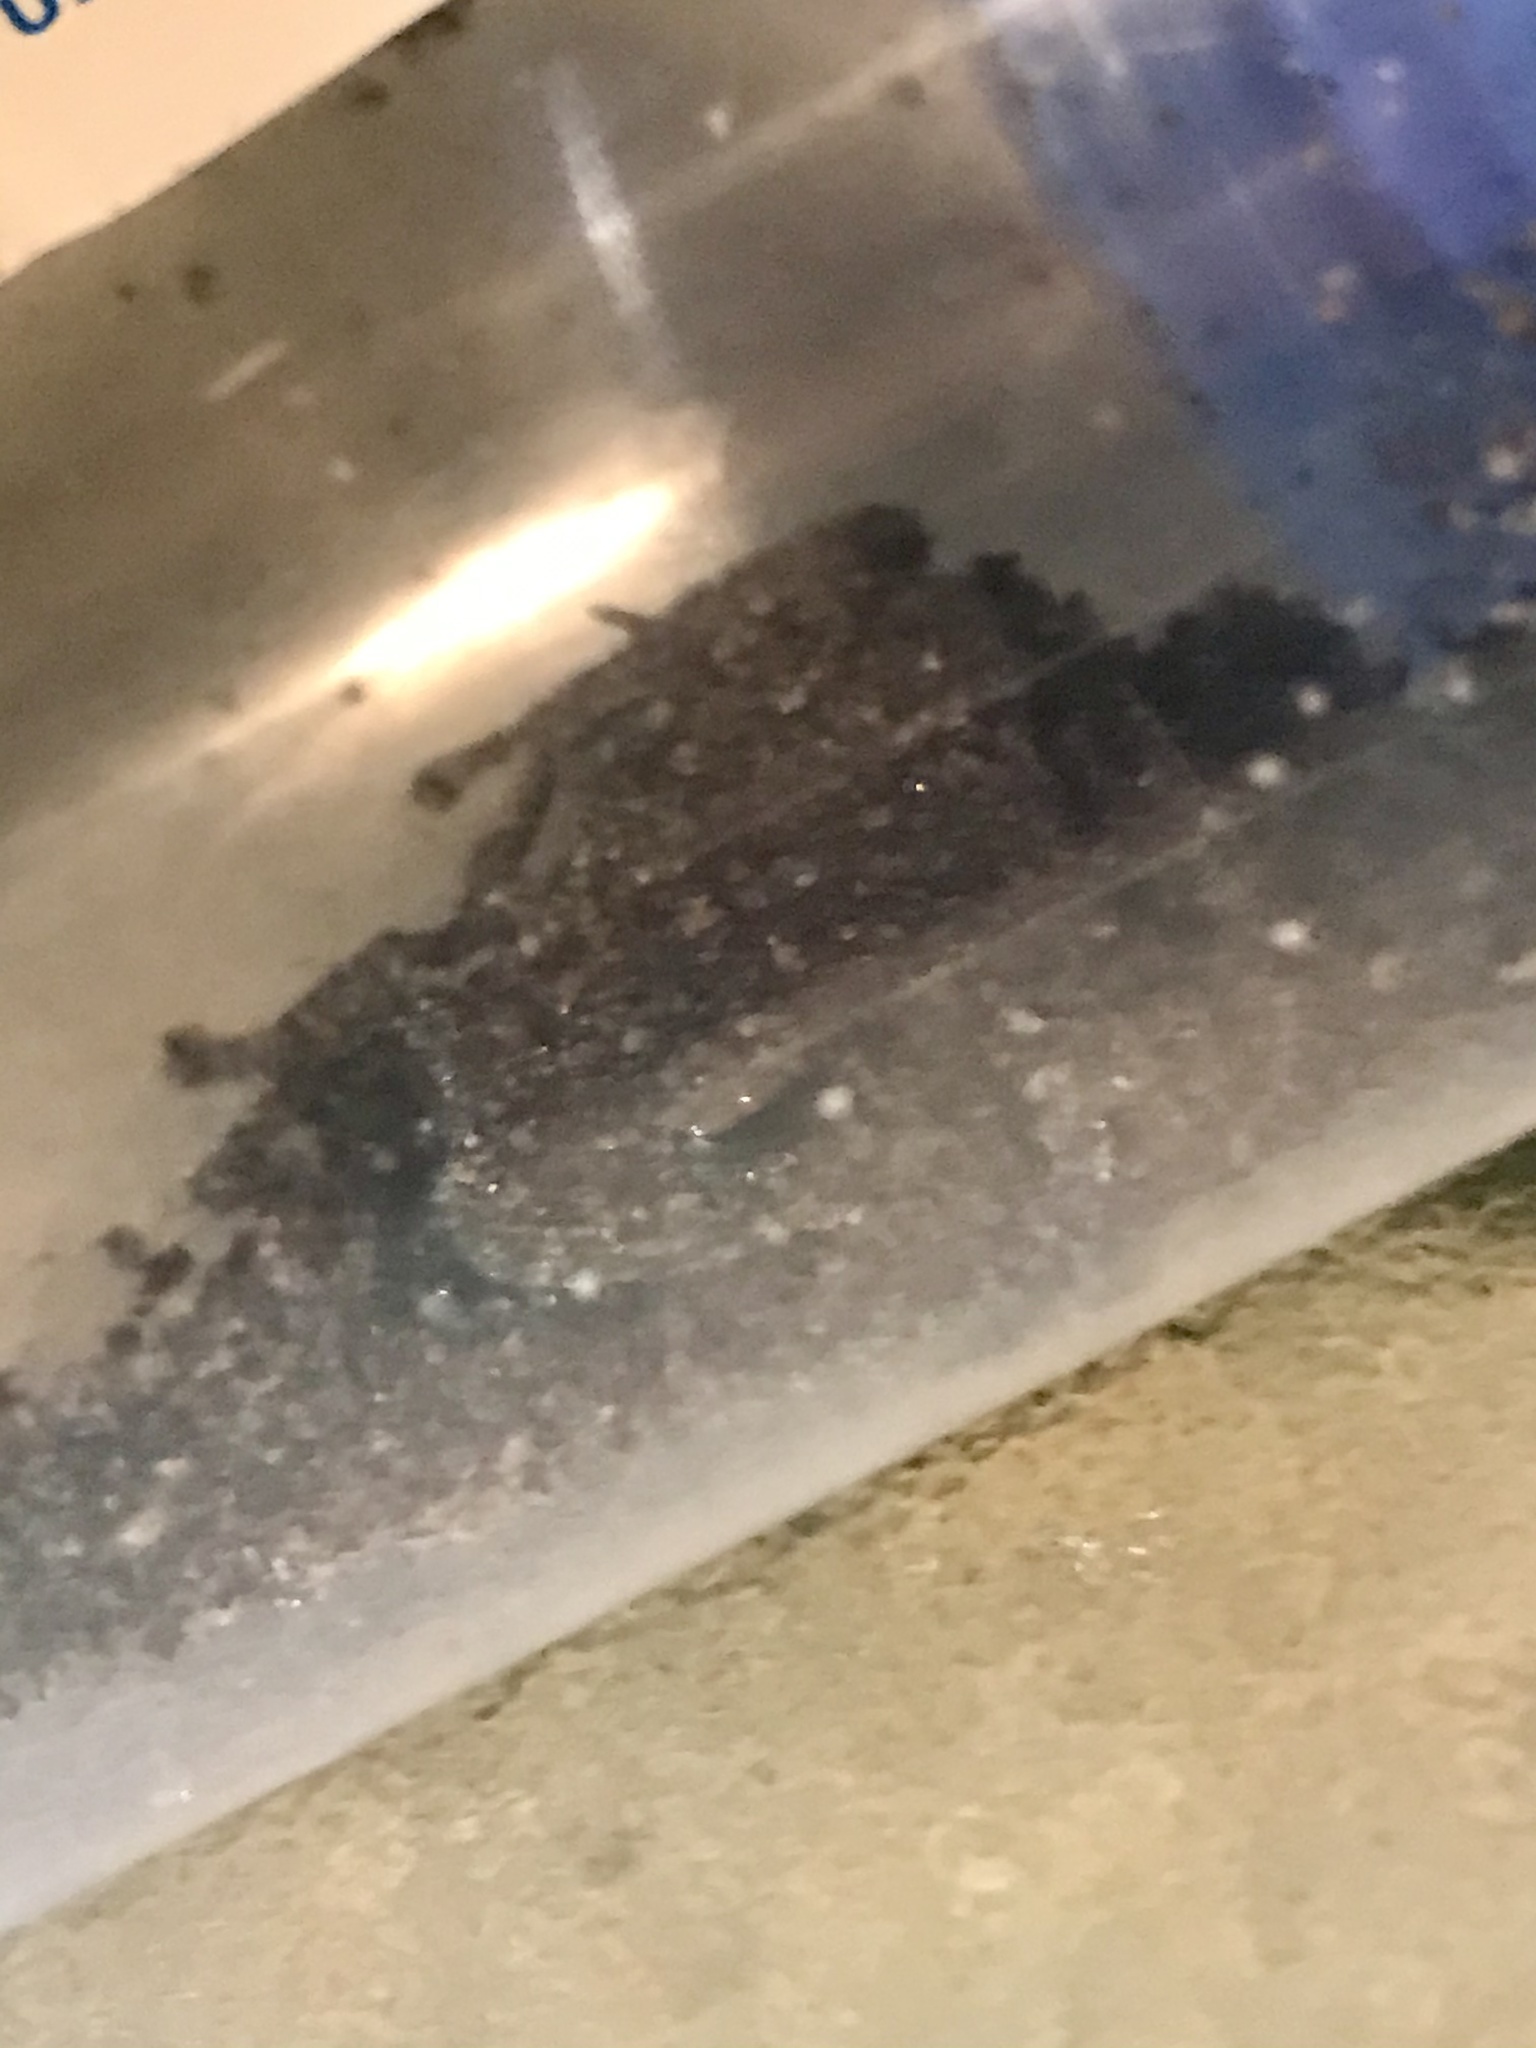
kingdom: Animalia
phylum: Chordata
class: Amphibia
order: Anura
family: Eleutherodactylidae
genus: Eleutherodactylus
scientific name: Eleutherodactylus coqui
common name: Coqui frog
